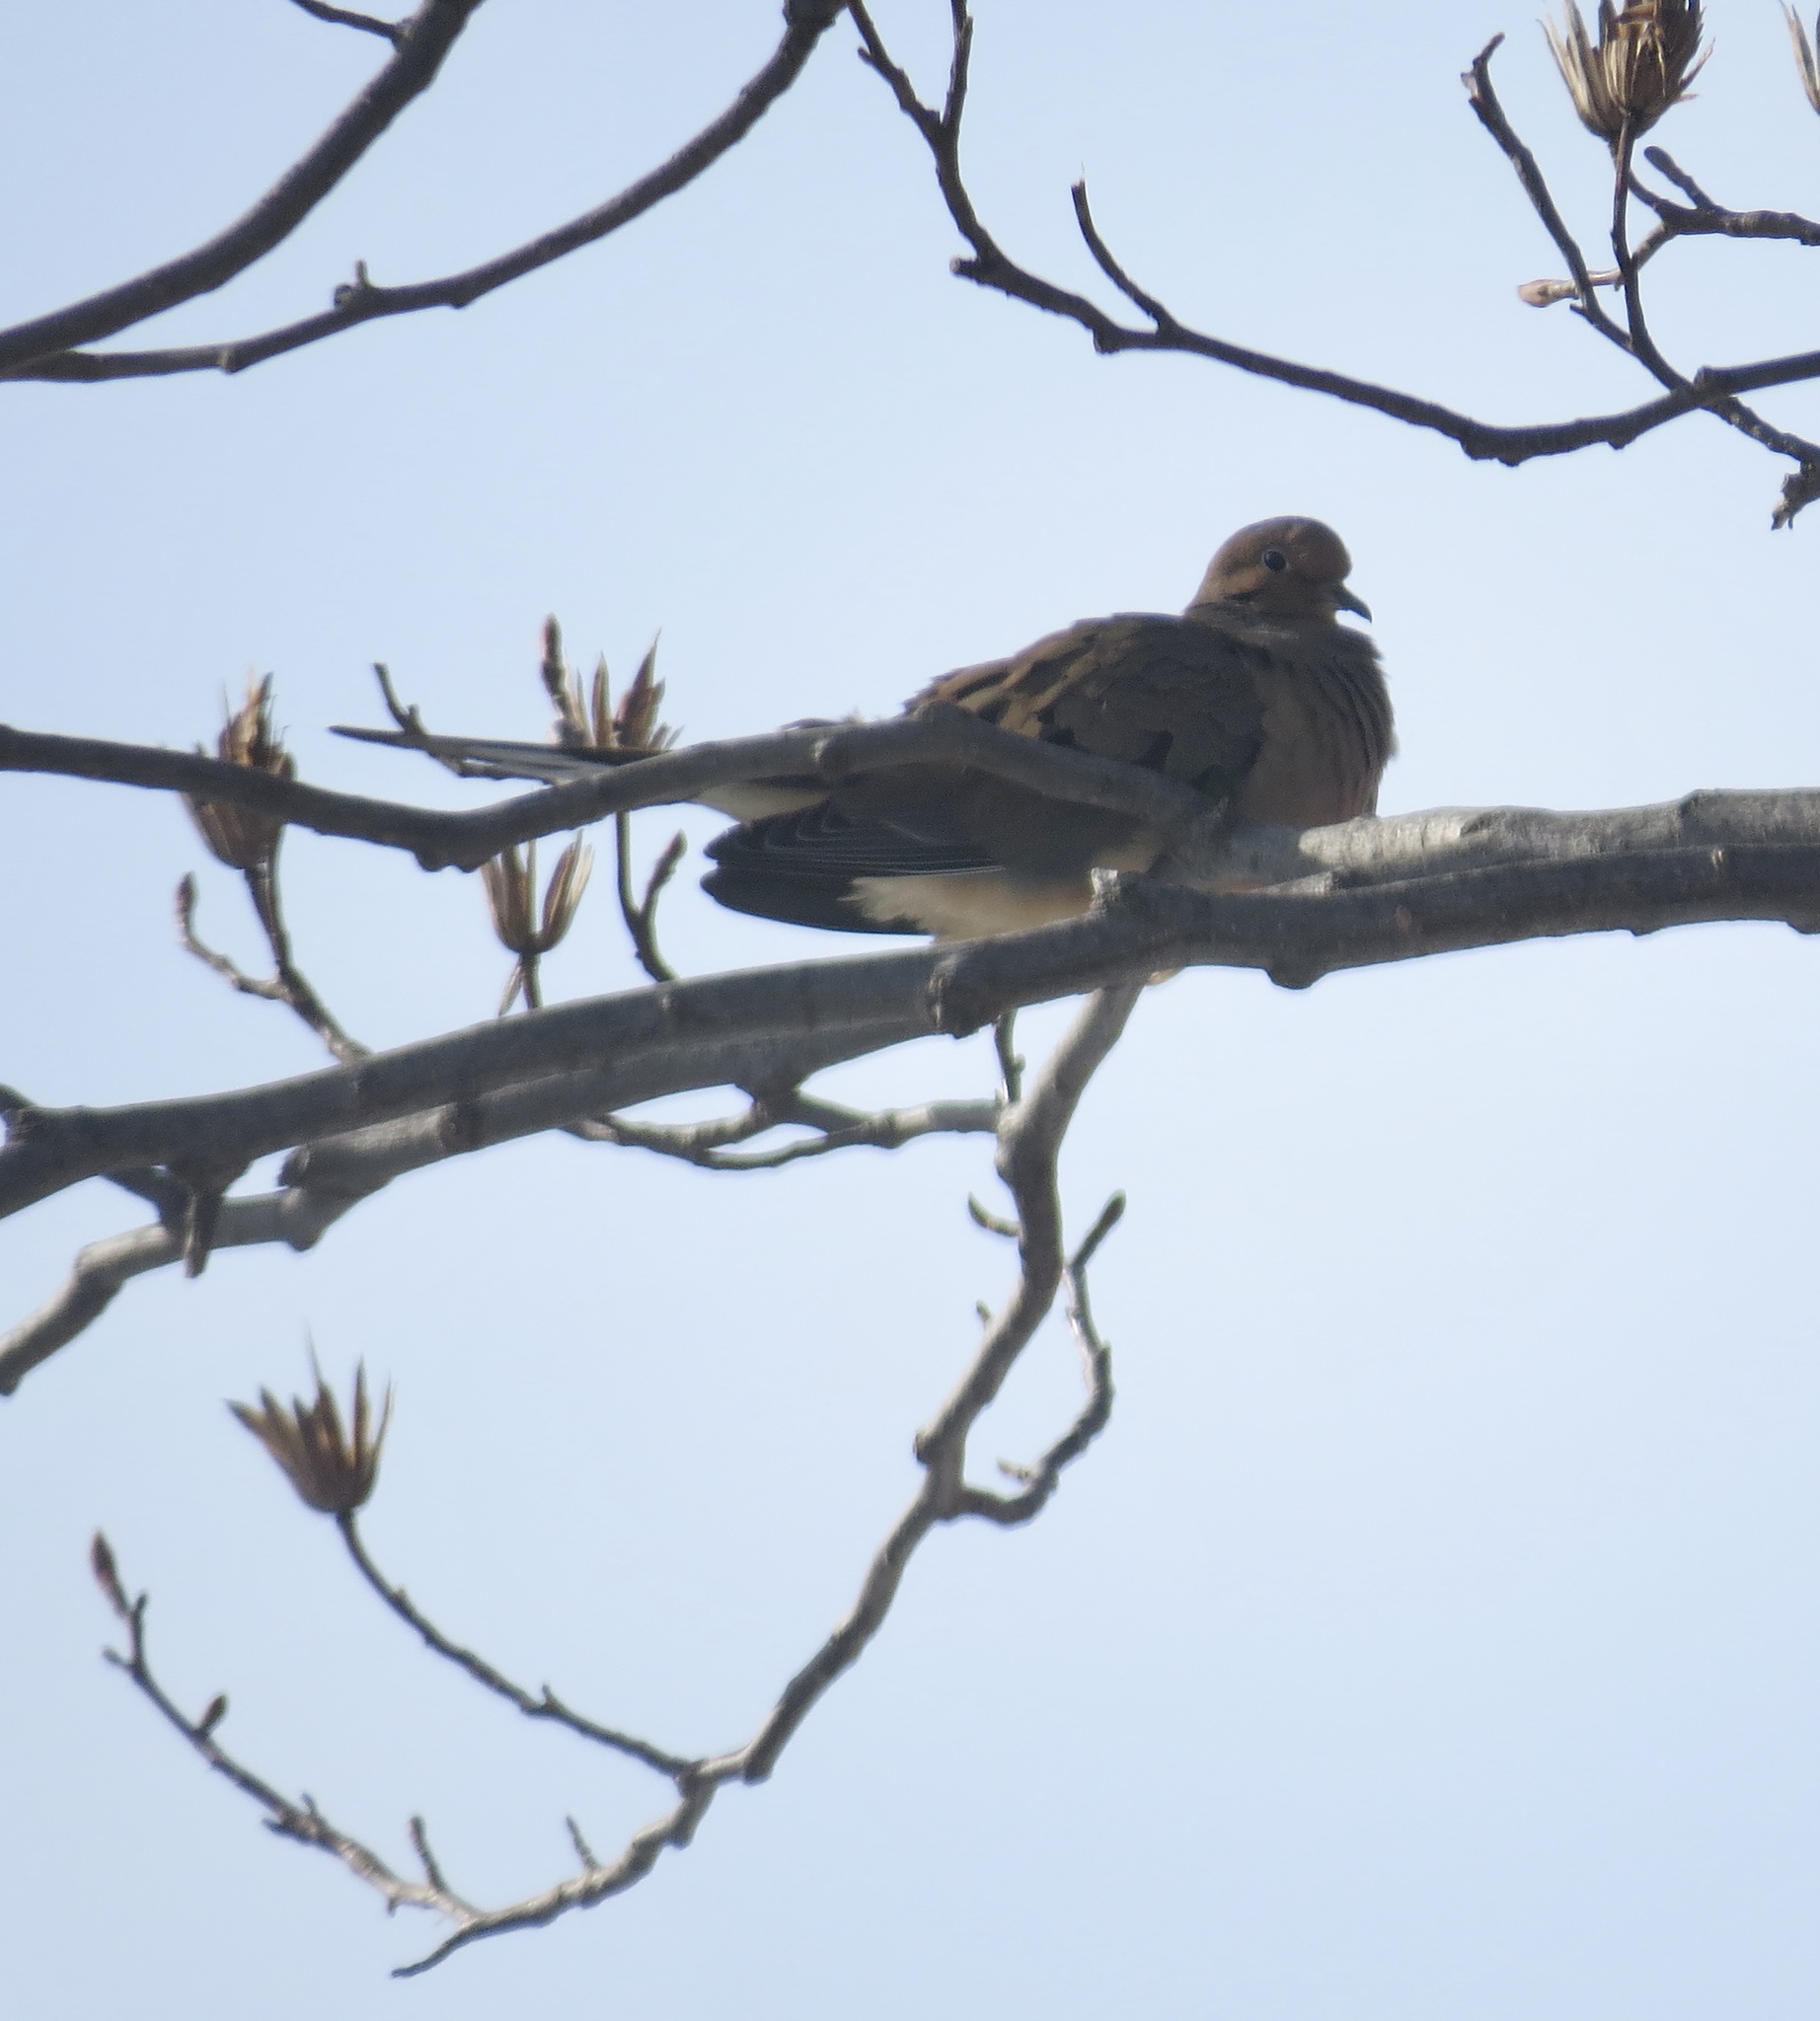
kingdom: Animalia
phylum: Chordata
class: Aves
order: Columbiformes
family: Columbidae
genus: Zenaida
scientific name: Zenaida macroura
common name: Mourning dove
